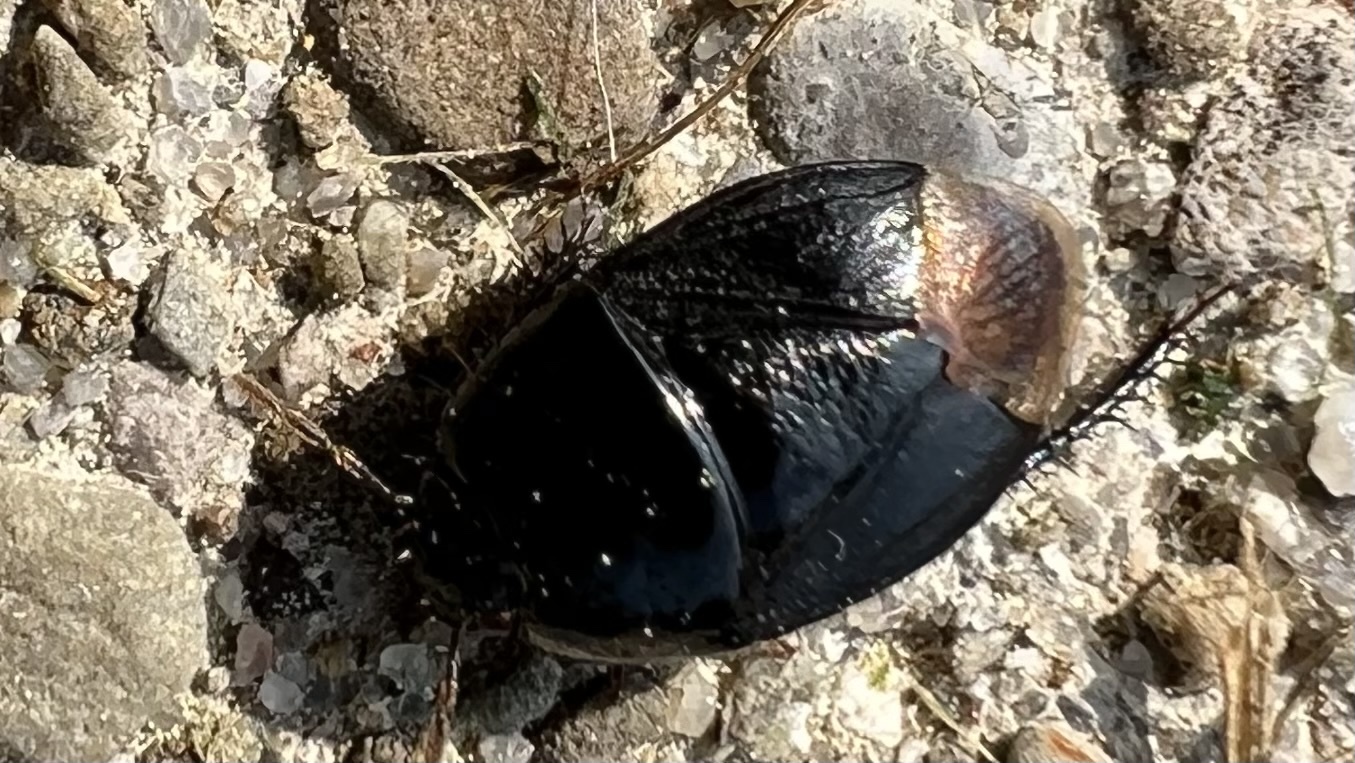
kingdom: Animalia
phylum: Arthropoda
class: Insecta
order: Hemiptera
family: Cydnidae
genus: Pangaeus
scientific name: Pangaeus bilineatus
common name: Burrower bug
